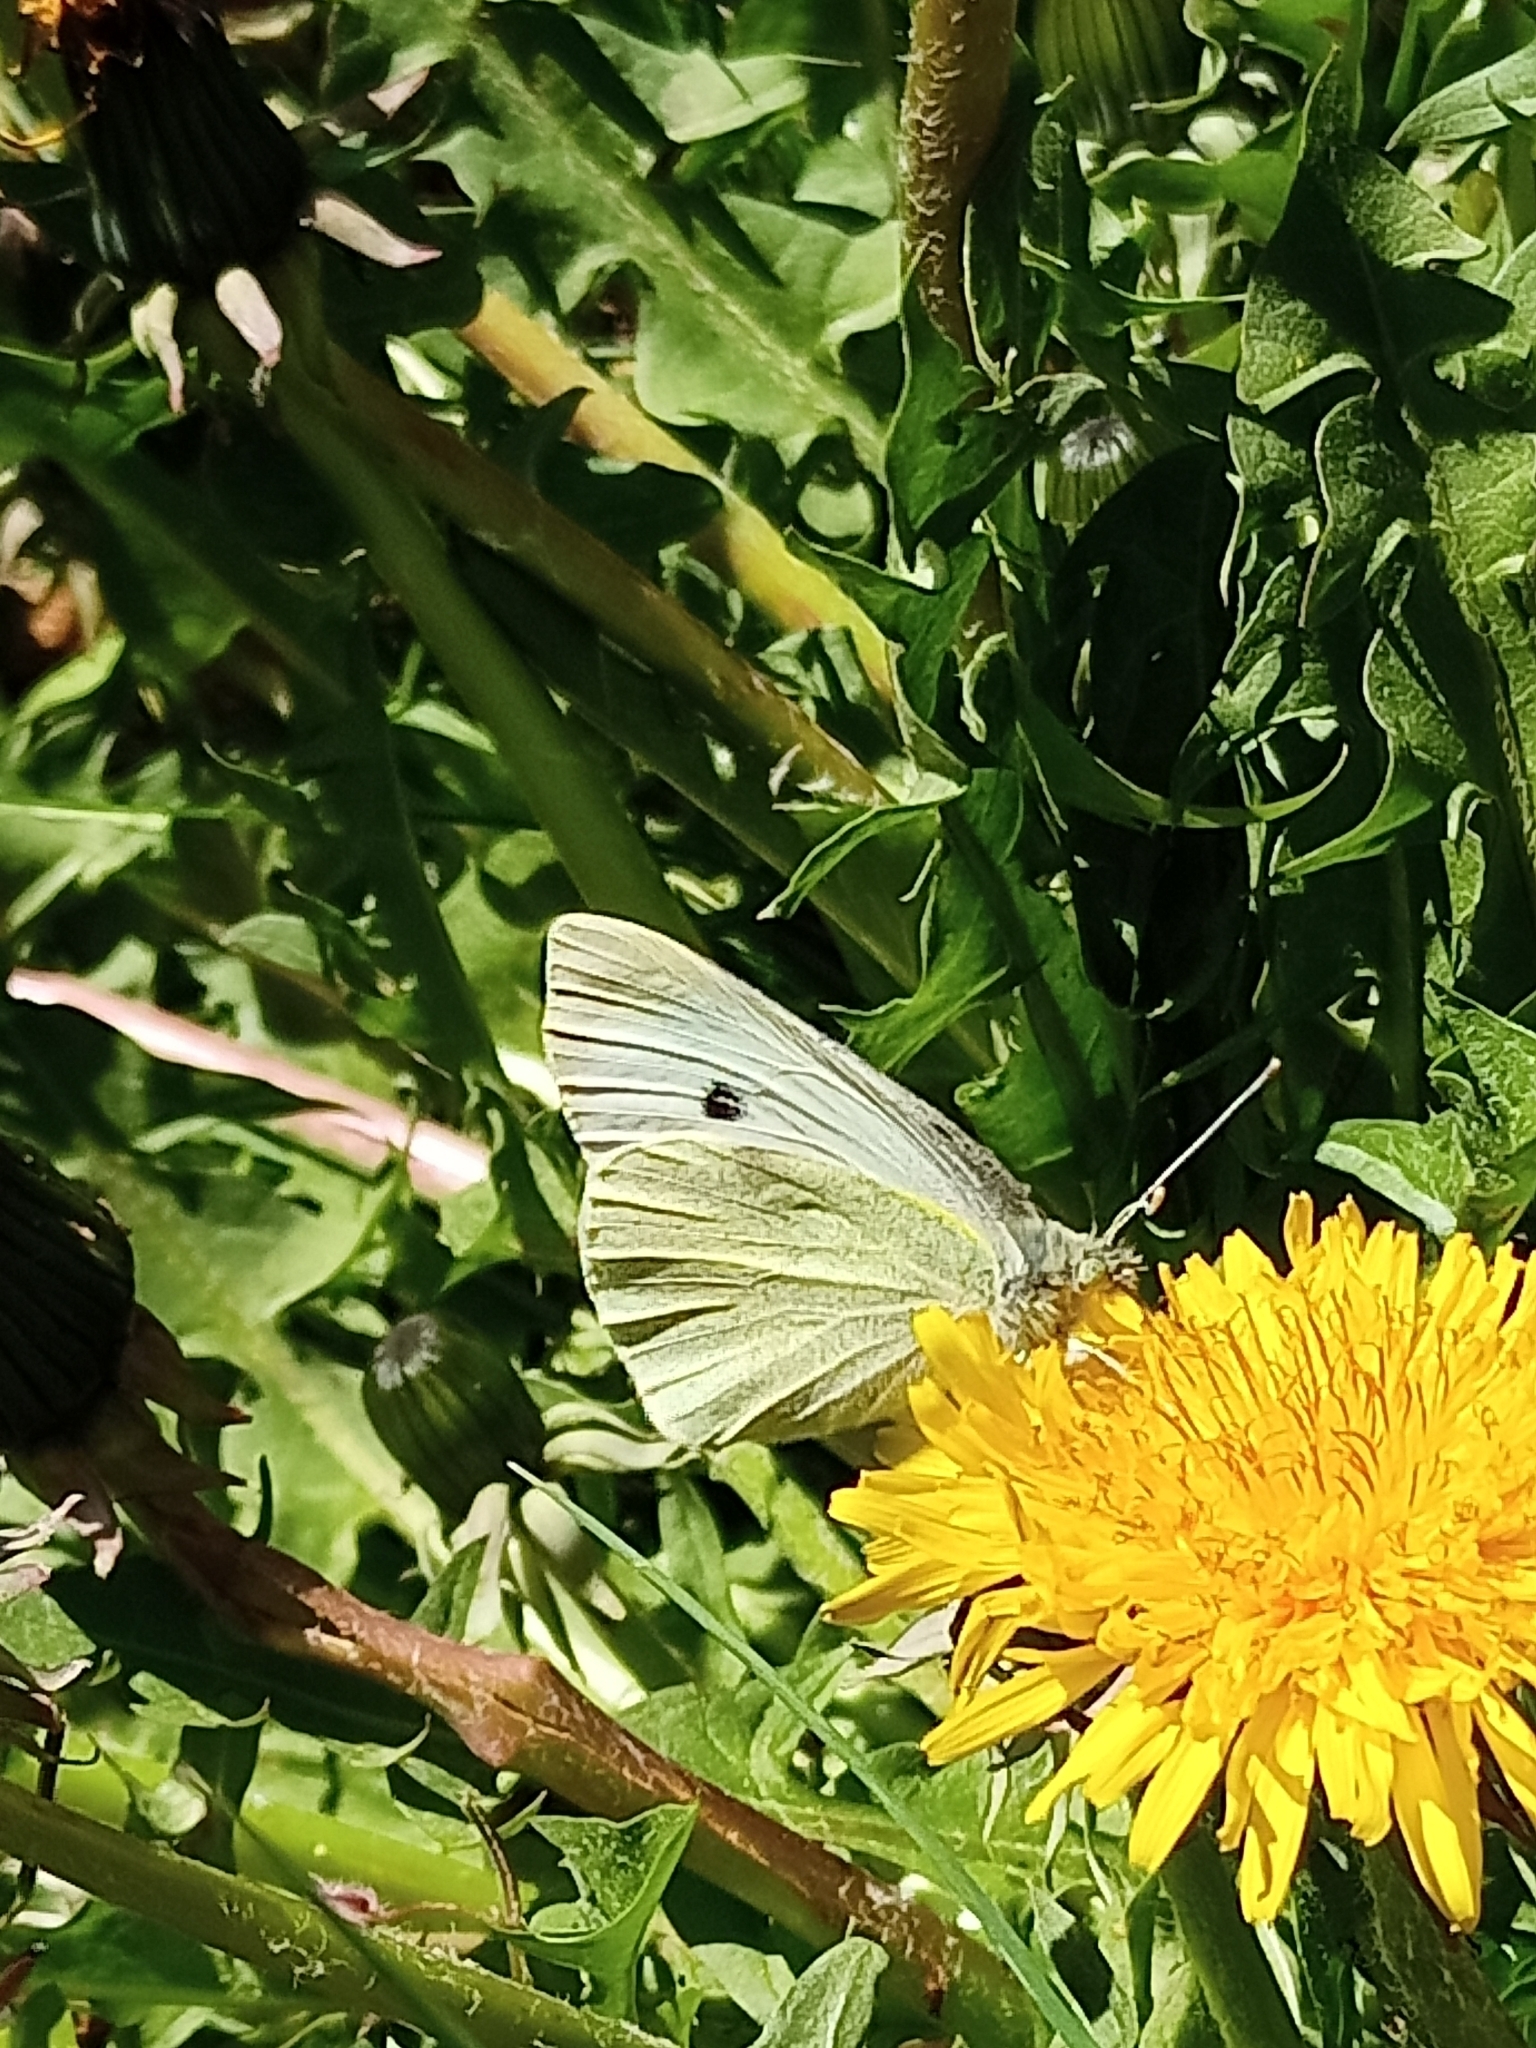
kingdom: Animalia
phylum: Arthropoda
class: Insecta
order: Lepidoptera
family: Pieridae
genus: Pieris
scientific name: Pieris rapae
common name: Small white
